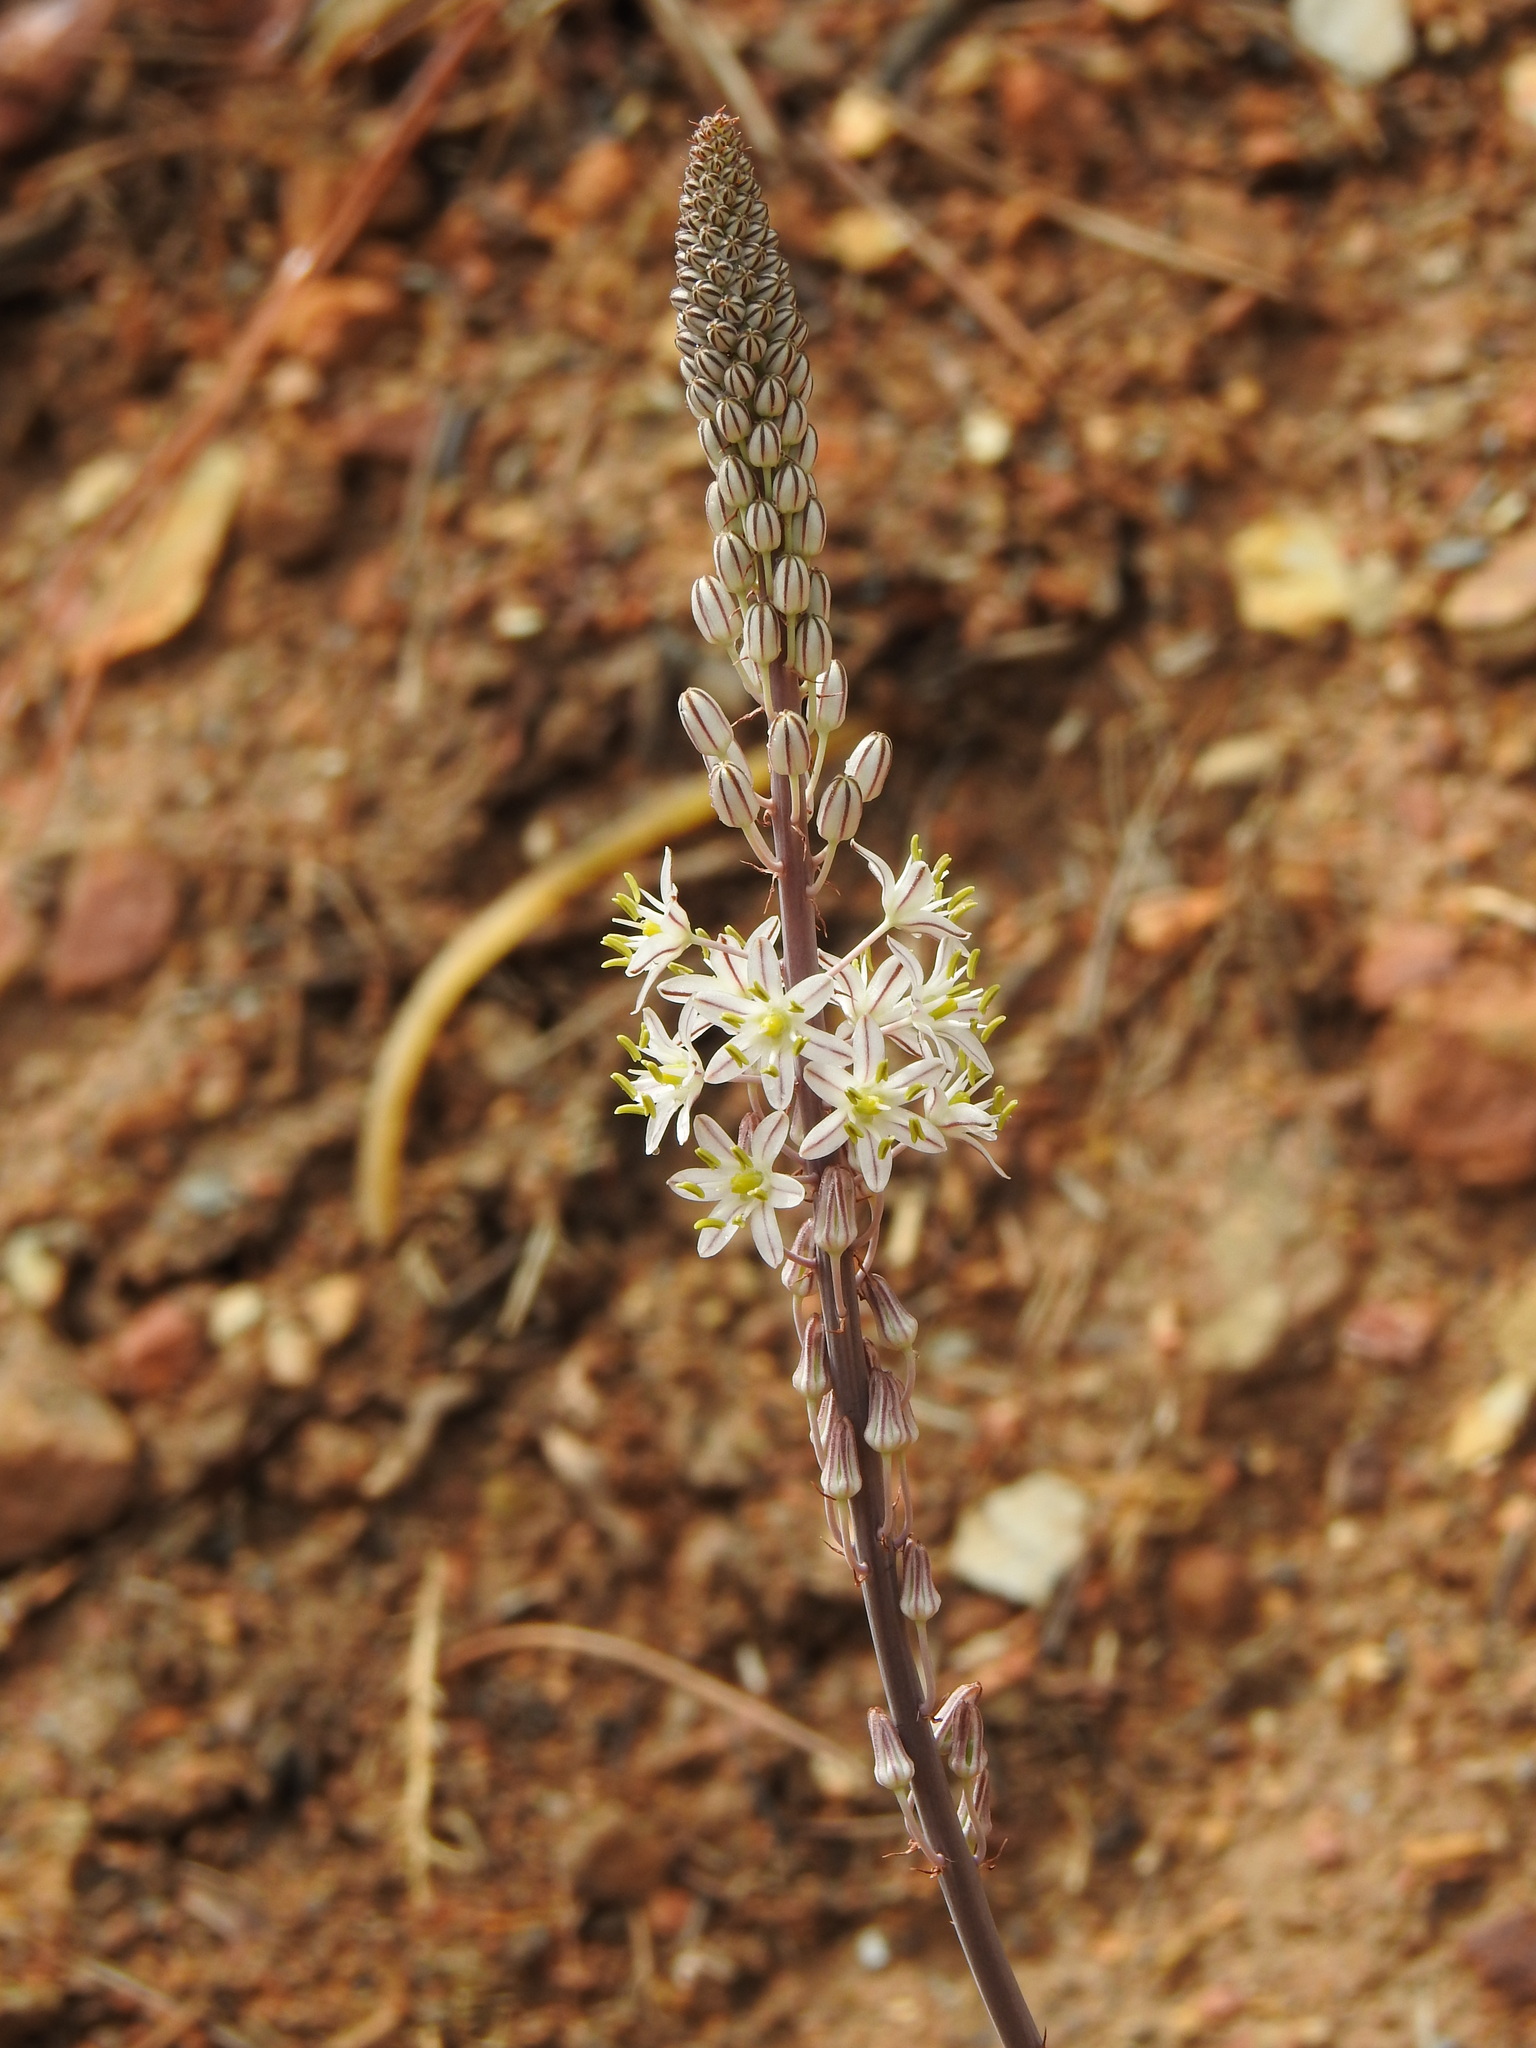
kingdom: Plantae
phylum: Tracheophyta
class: Liliopsida
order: Asparagales
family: Asparagaceae
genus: Drimia
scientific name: Drimia maritima
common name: Maritime squill
